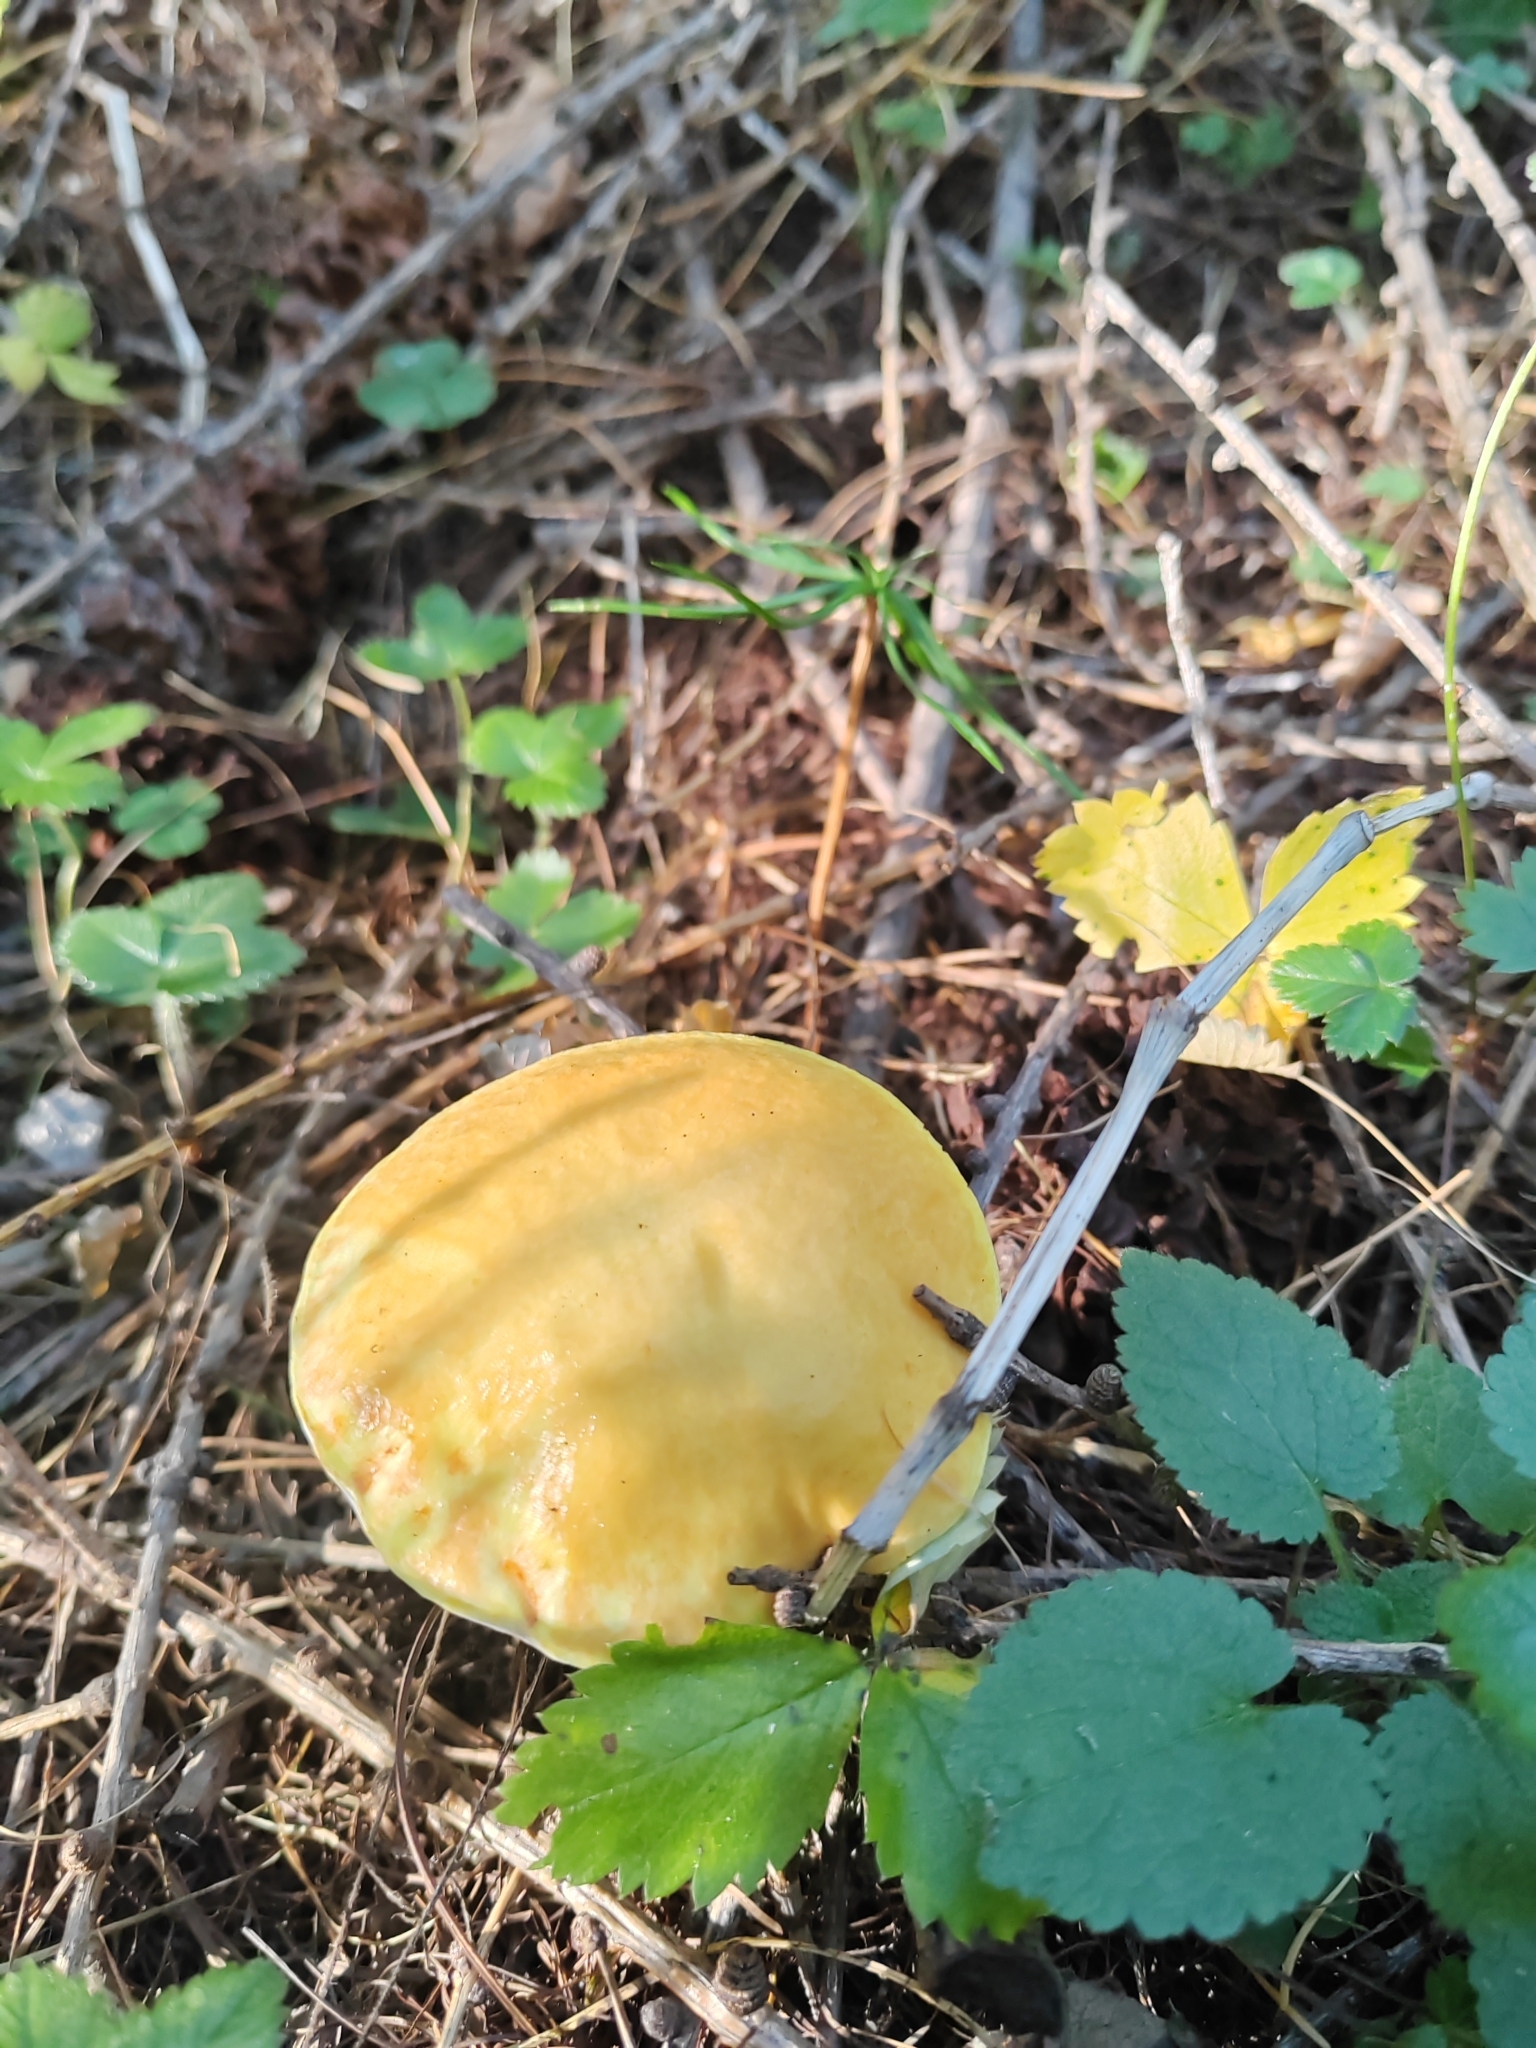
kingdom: Fungi
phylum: Basidiomycota
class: Agaricomycetes
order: Boletales
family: Suillaceae
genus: Suillus
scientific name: Suillus grevillei
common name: Larch bolete
